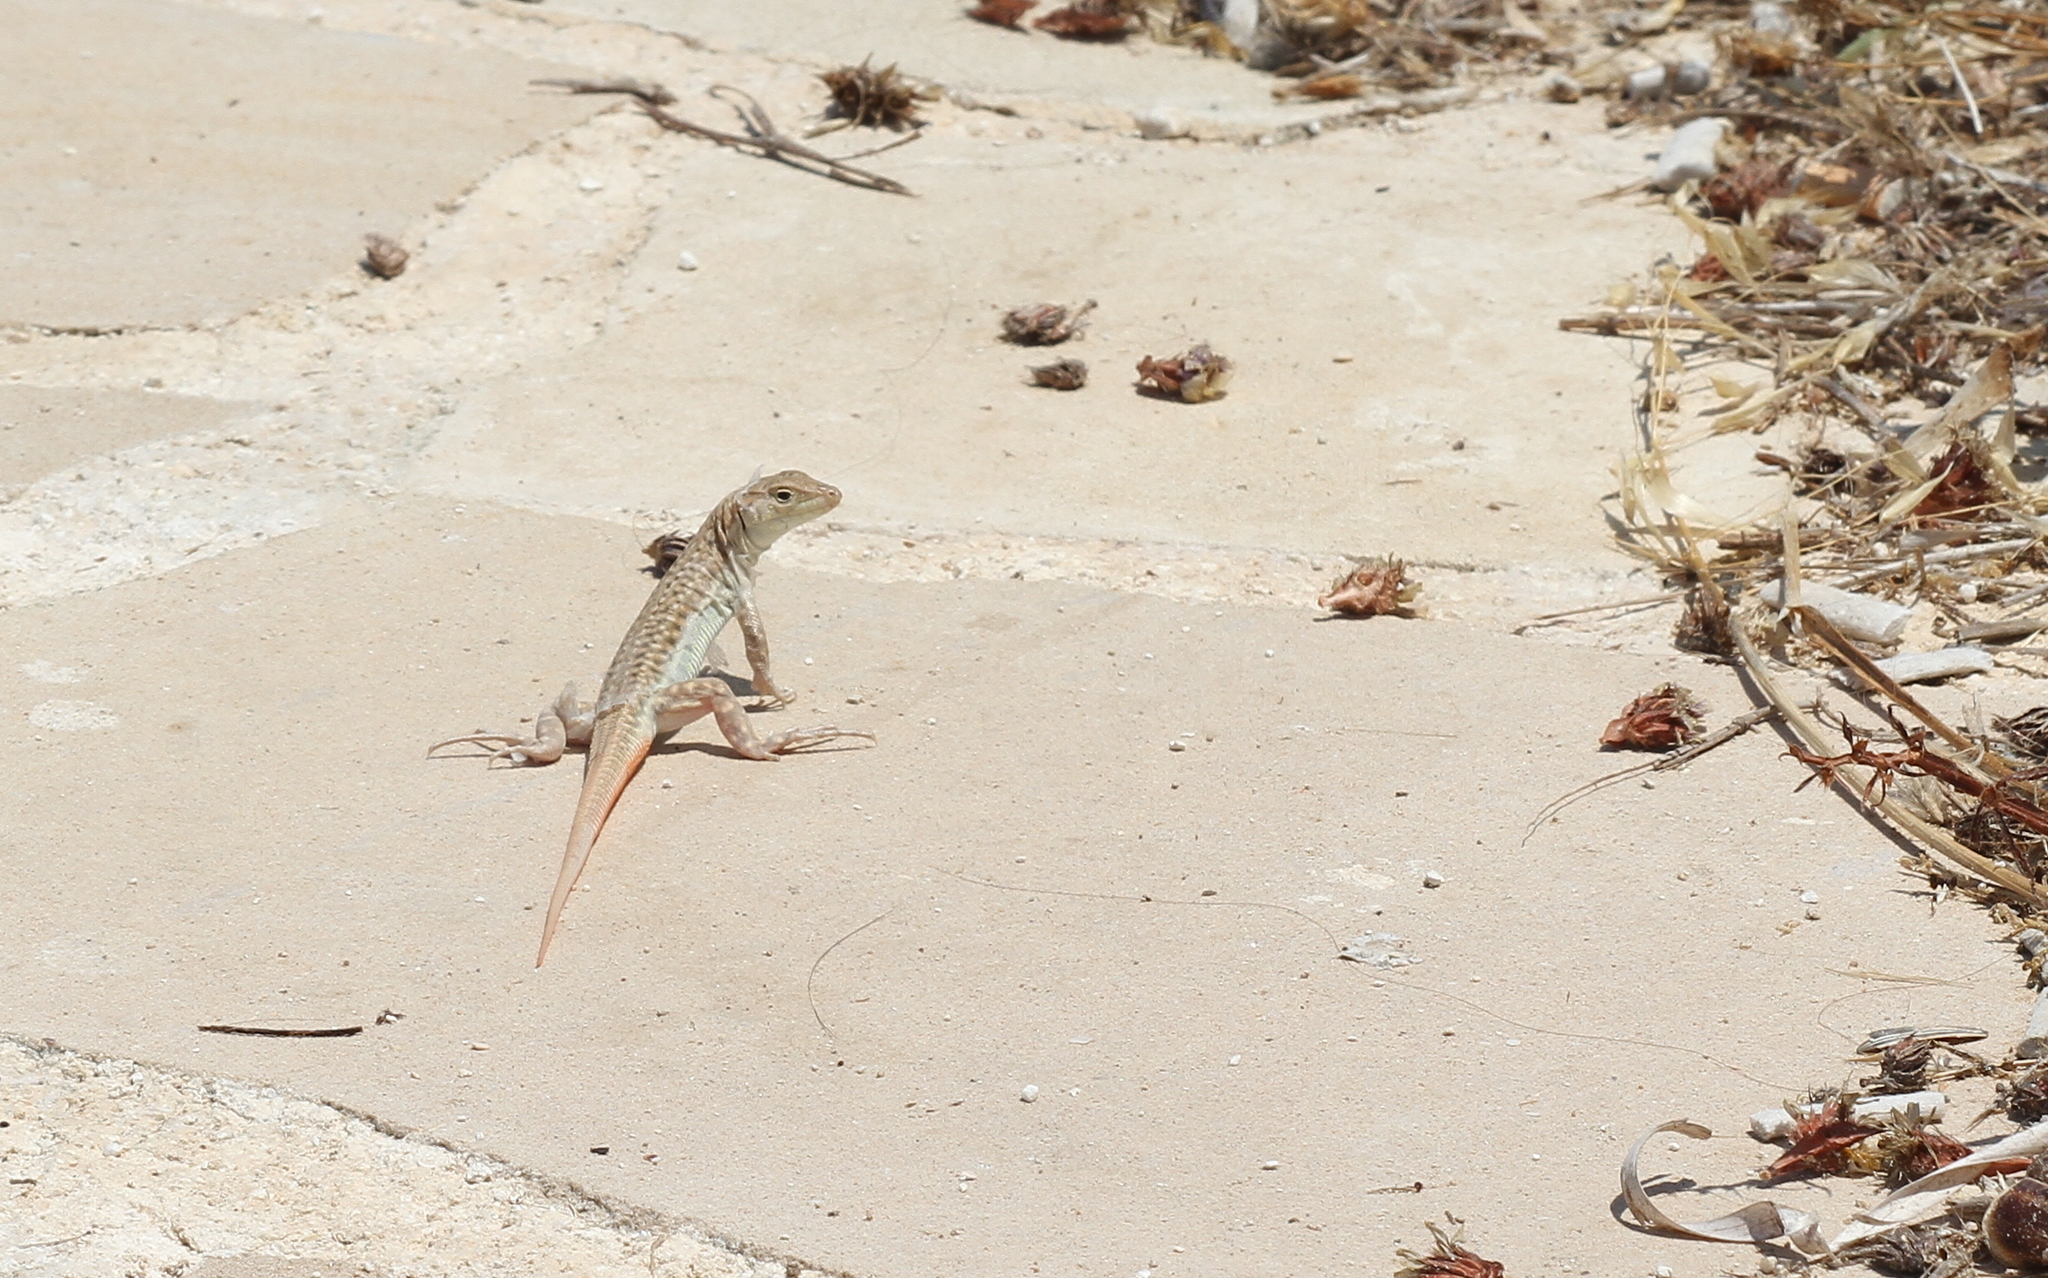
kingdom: Animalia
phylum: Chordata
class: Squamata
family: Lacertidae
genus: Acanthodactylus
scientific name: Acanthodactylus schreiberi
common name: Schreiber's fringe-fingered lizard
